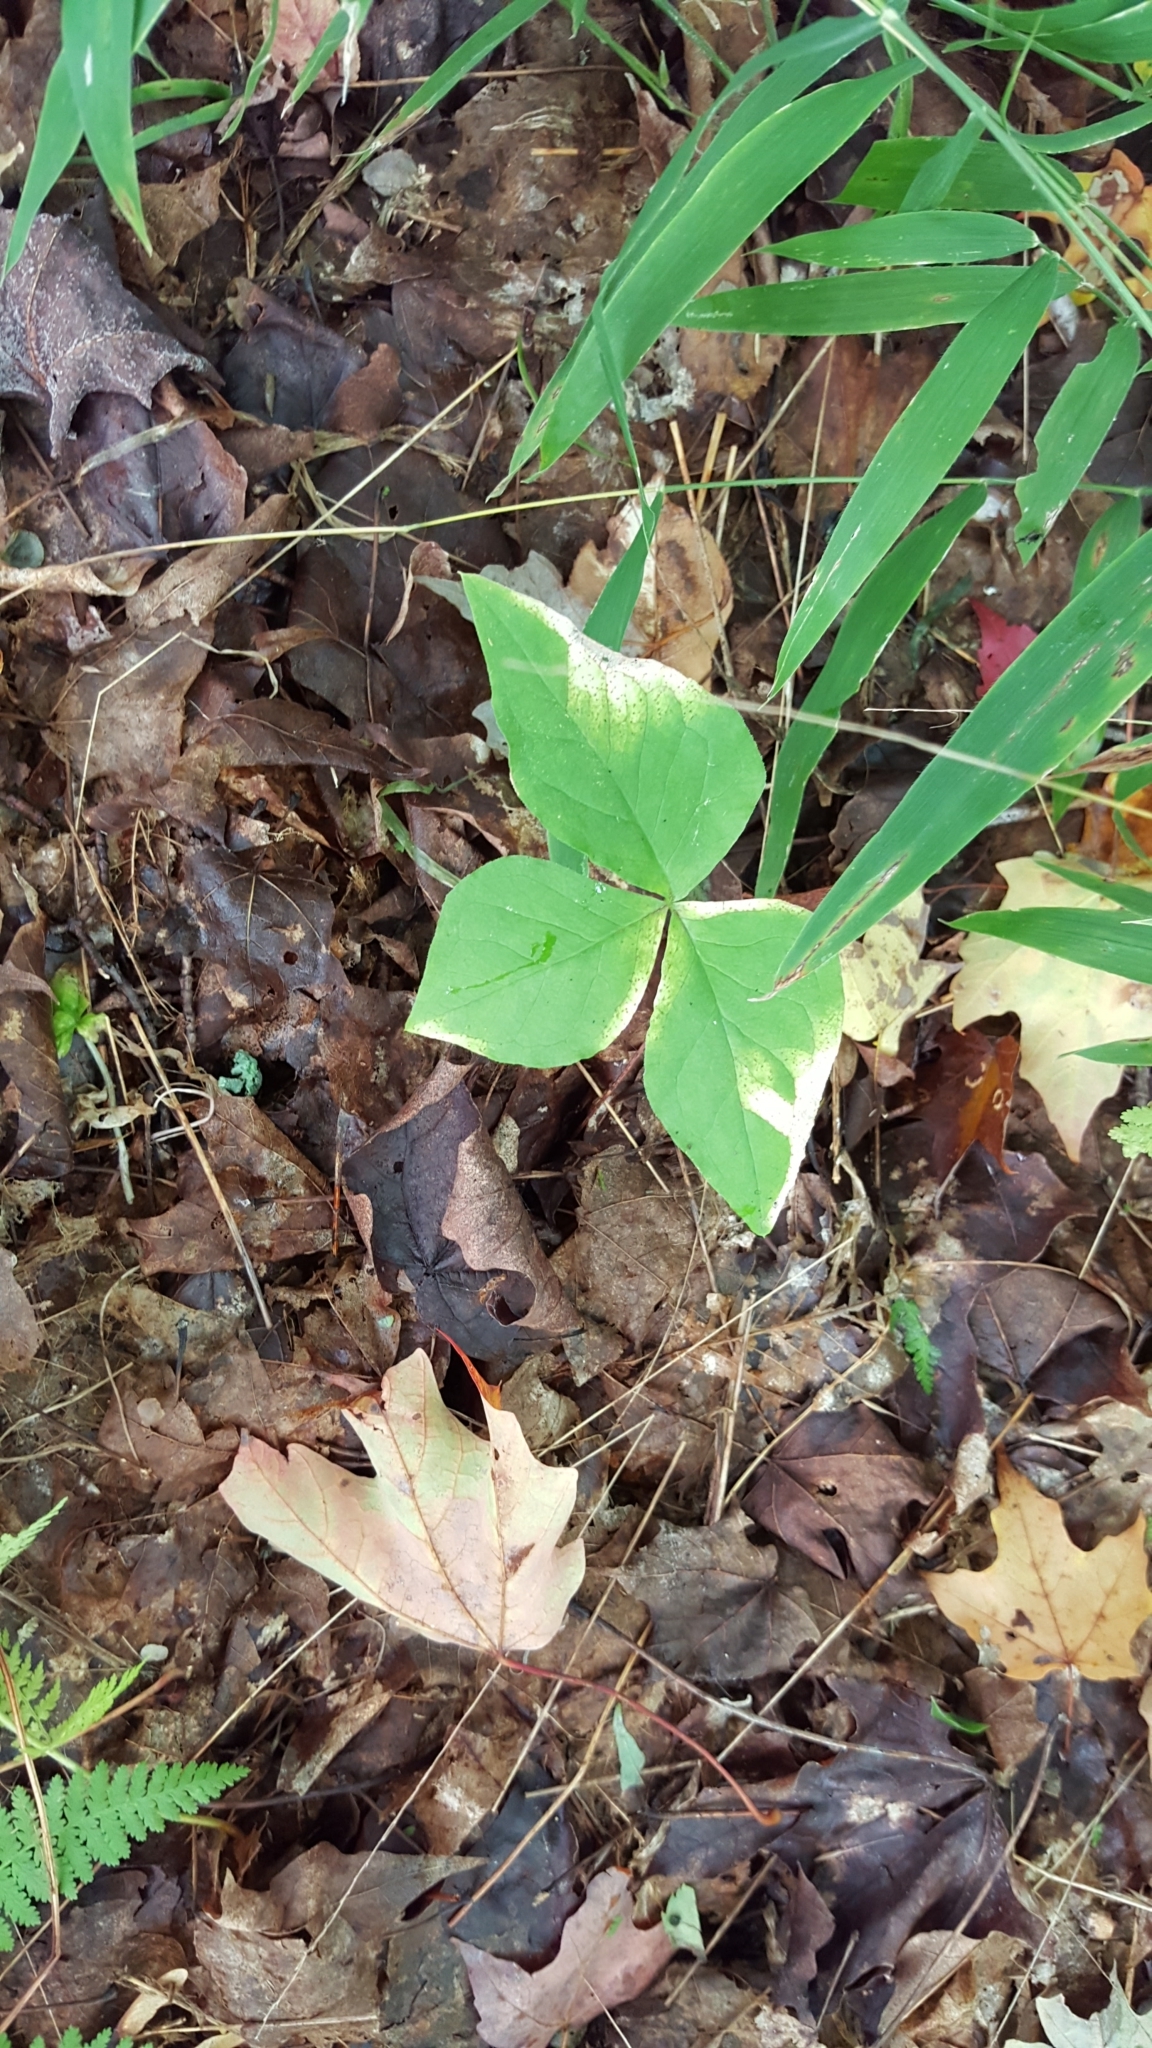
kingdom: Plantae
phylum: Tracheophyta
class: Liliopsida
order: Alismatales
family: Araceae
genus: Arisaema
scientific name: Arisaema triphyllum
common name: Jack-in-the-pulpit
